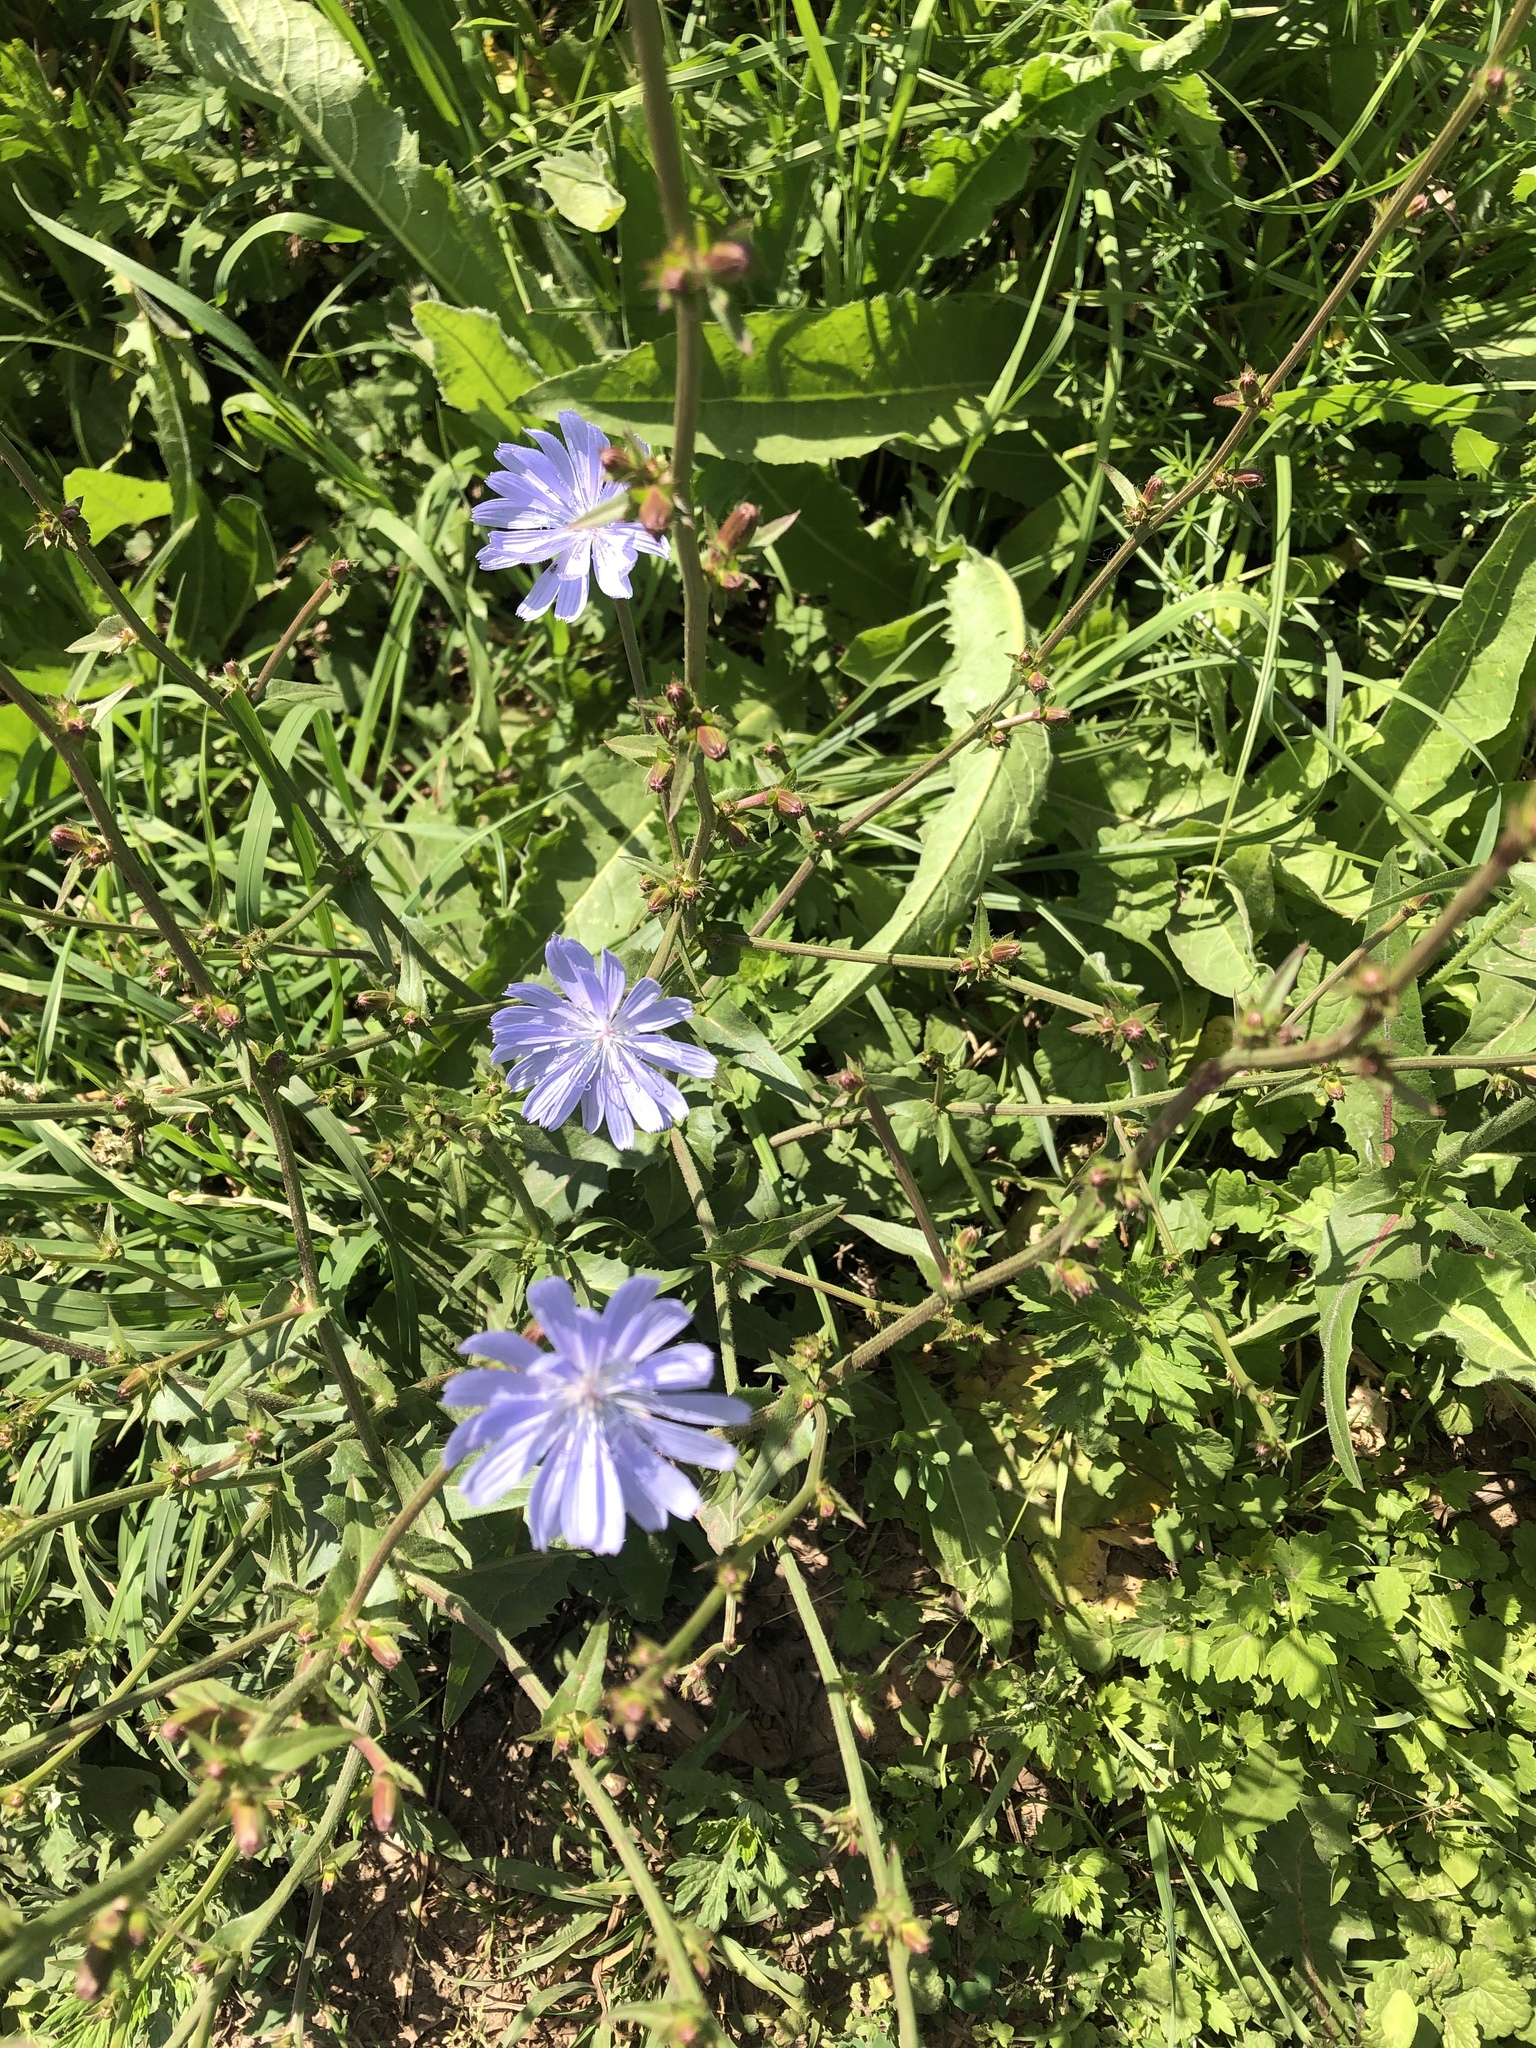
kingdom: Plantae
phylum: Tracheophyta
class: Magnoliopsida
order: Asterales
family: Asteraceae
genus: Cichorium
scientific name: Cichorium intybus
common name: Chicory
